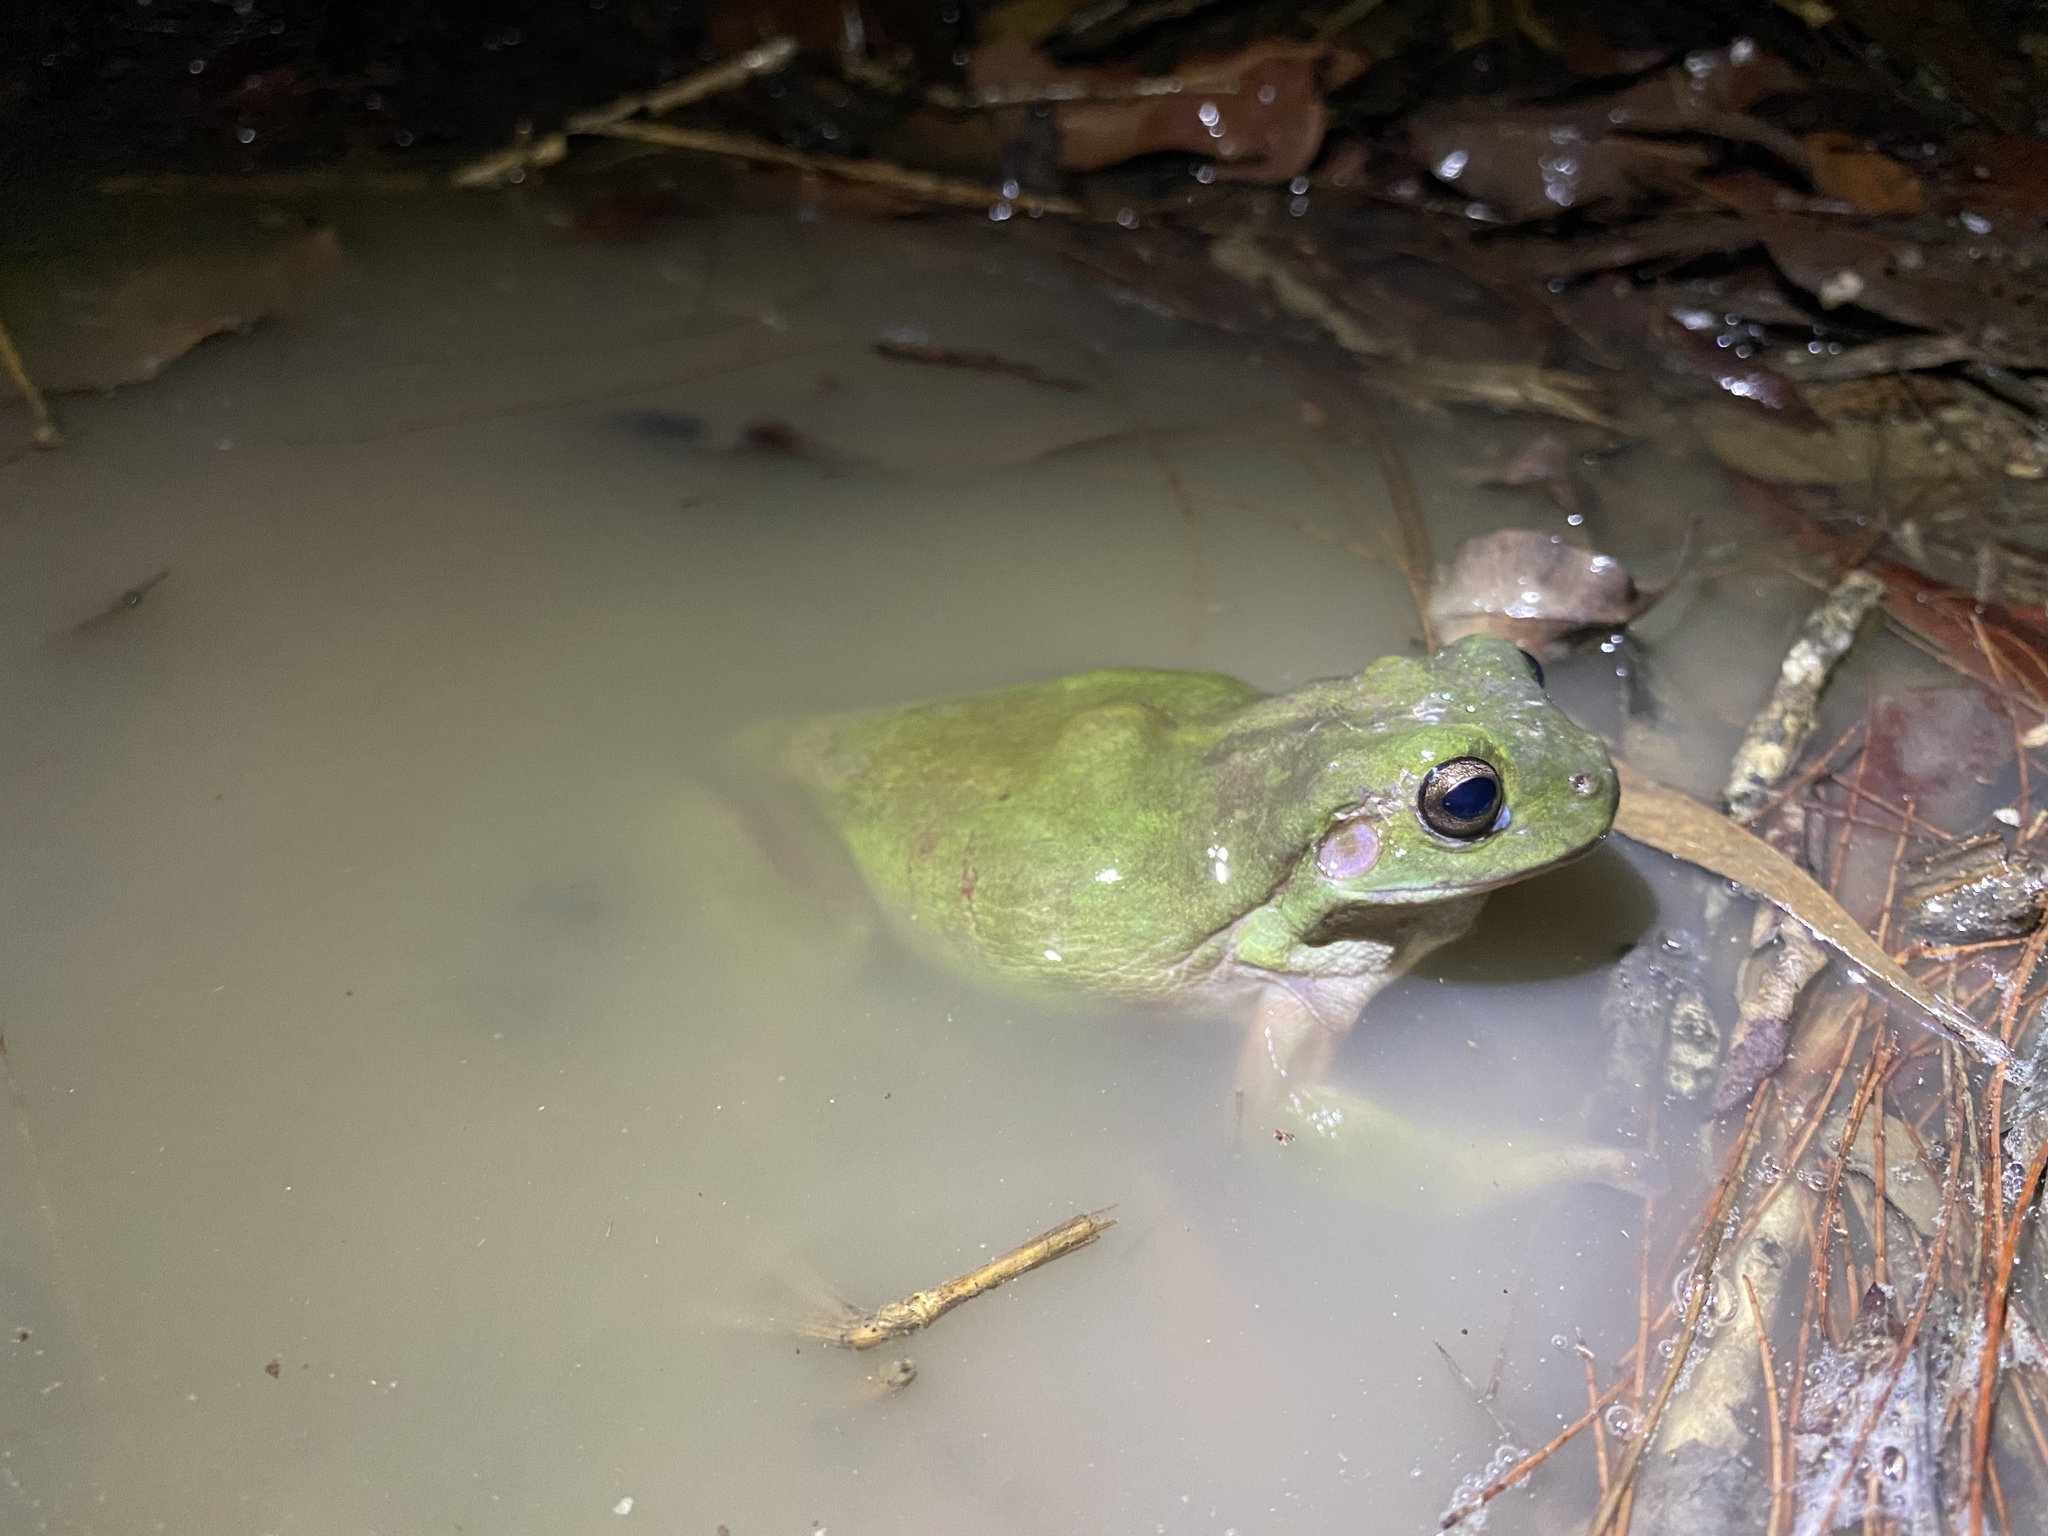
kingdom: Animalia
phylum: Chordata
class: Amphibia
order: Anura
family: Pelodryadidae
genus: Ranoidea
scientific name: Ranoidea caerulea
